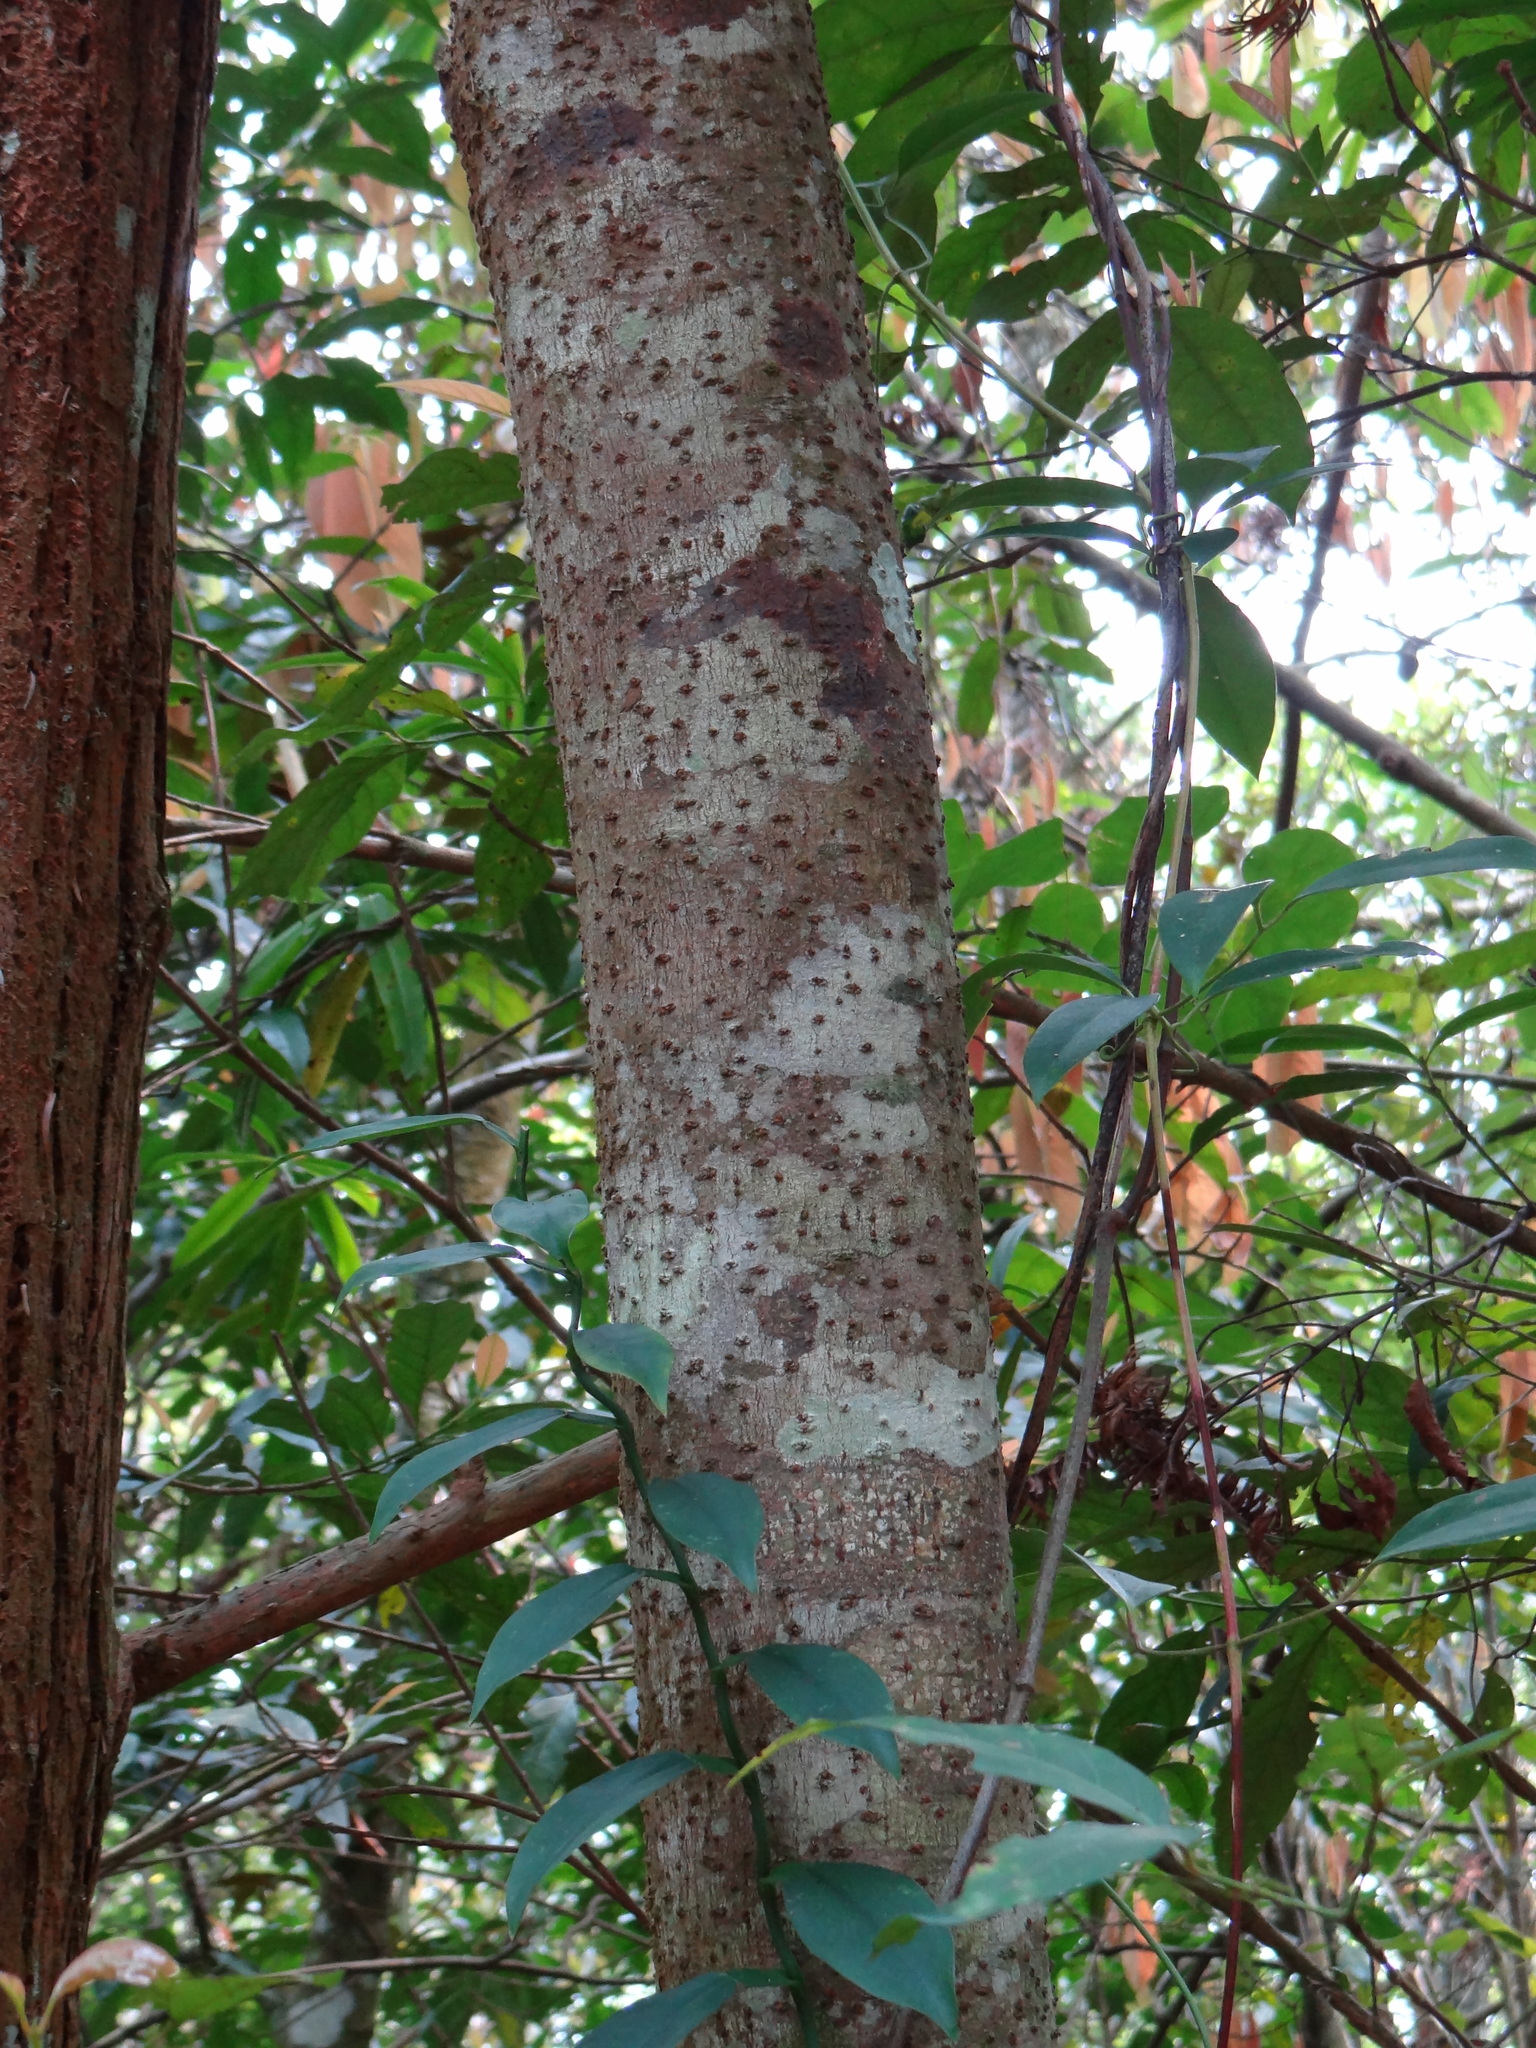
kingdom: Plantae
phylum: Tracheophyta
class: Magnoliopsida
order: Laurales
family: Lauraceae
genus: Lindera
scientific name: Lindera communis
